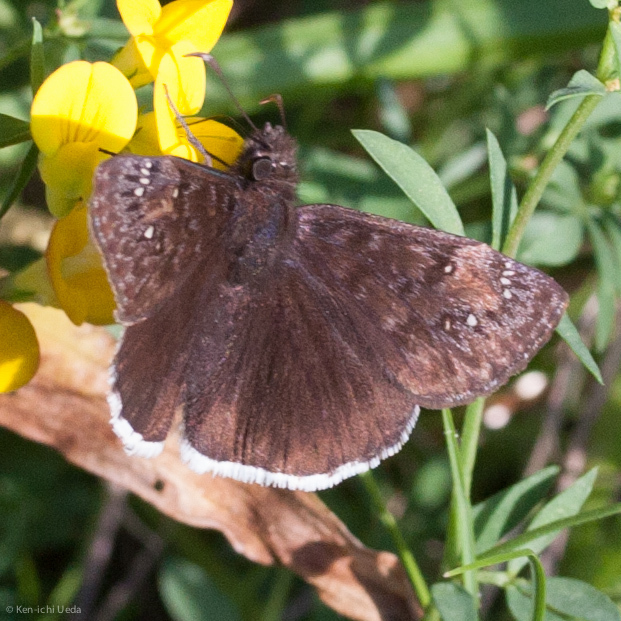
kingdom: Animalia
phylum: Arthropoda
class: Insecta
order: Lepidoptera
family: Hesperiidae
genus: Erynnis
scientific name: Erynnis tristis
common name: Mournful duskywing
